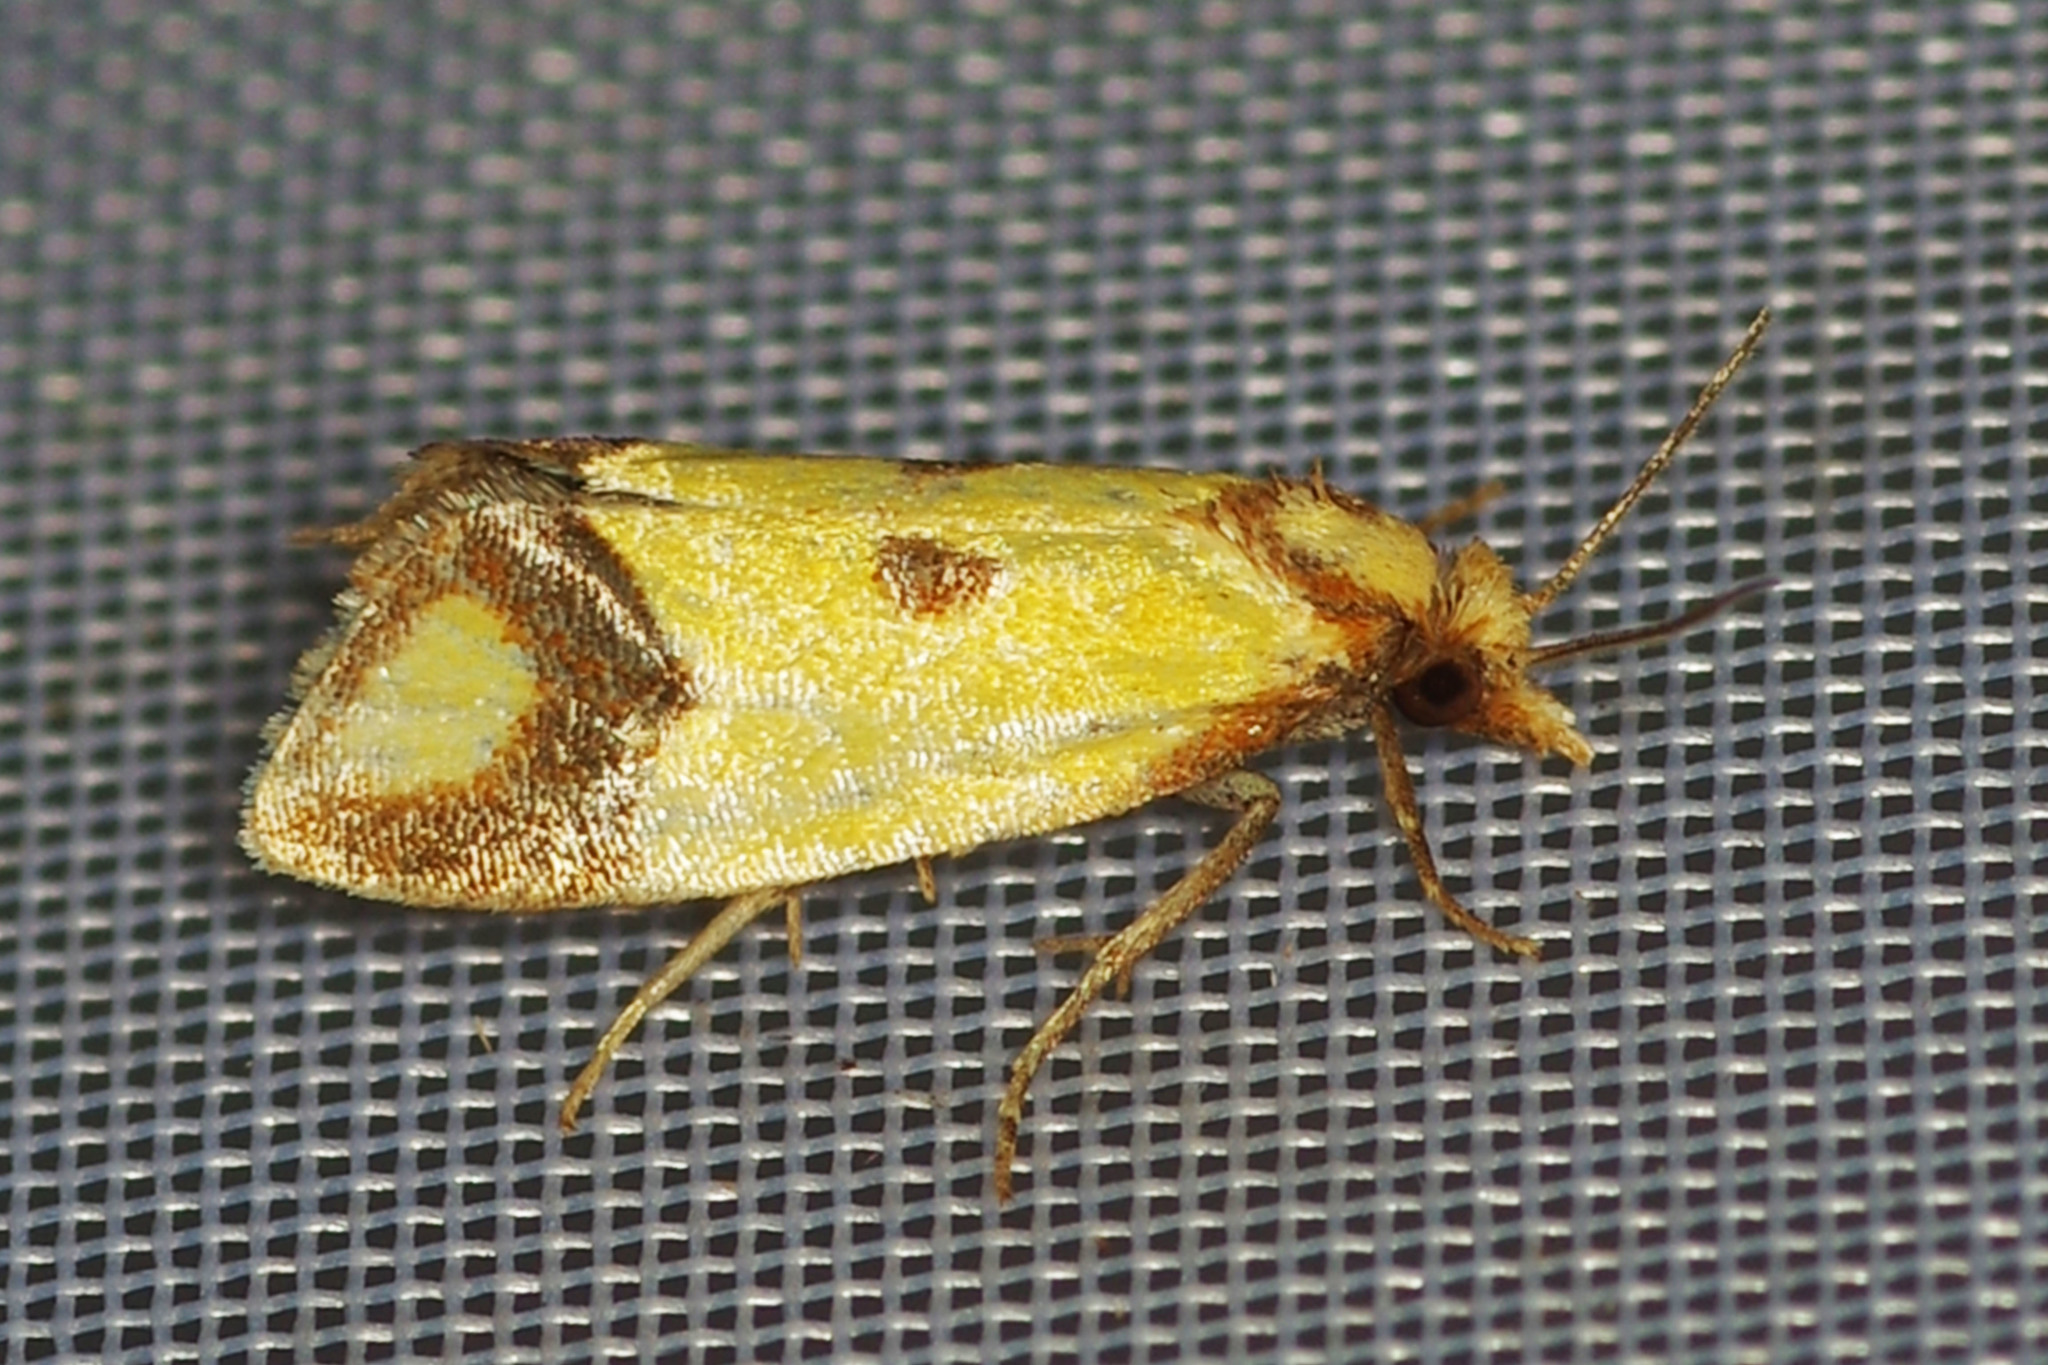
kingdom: Animalia
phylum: Arthropoda
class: Insecta
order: Lepidoptera
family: Tortricidae
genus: Agapeta
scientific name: Agapeta zoegana
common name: Sulfur knapweed root moth
